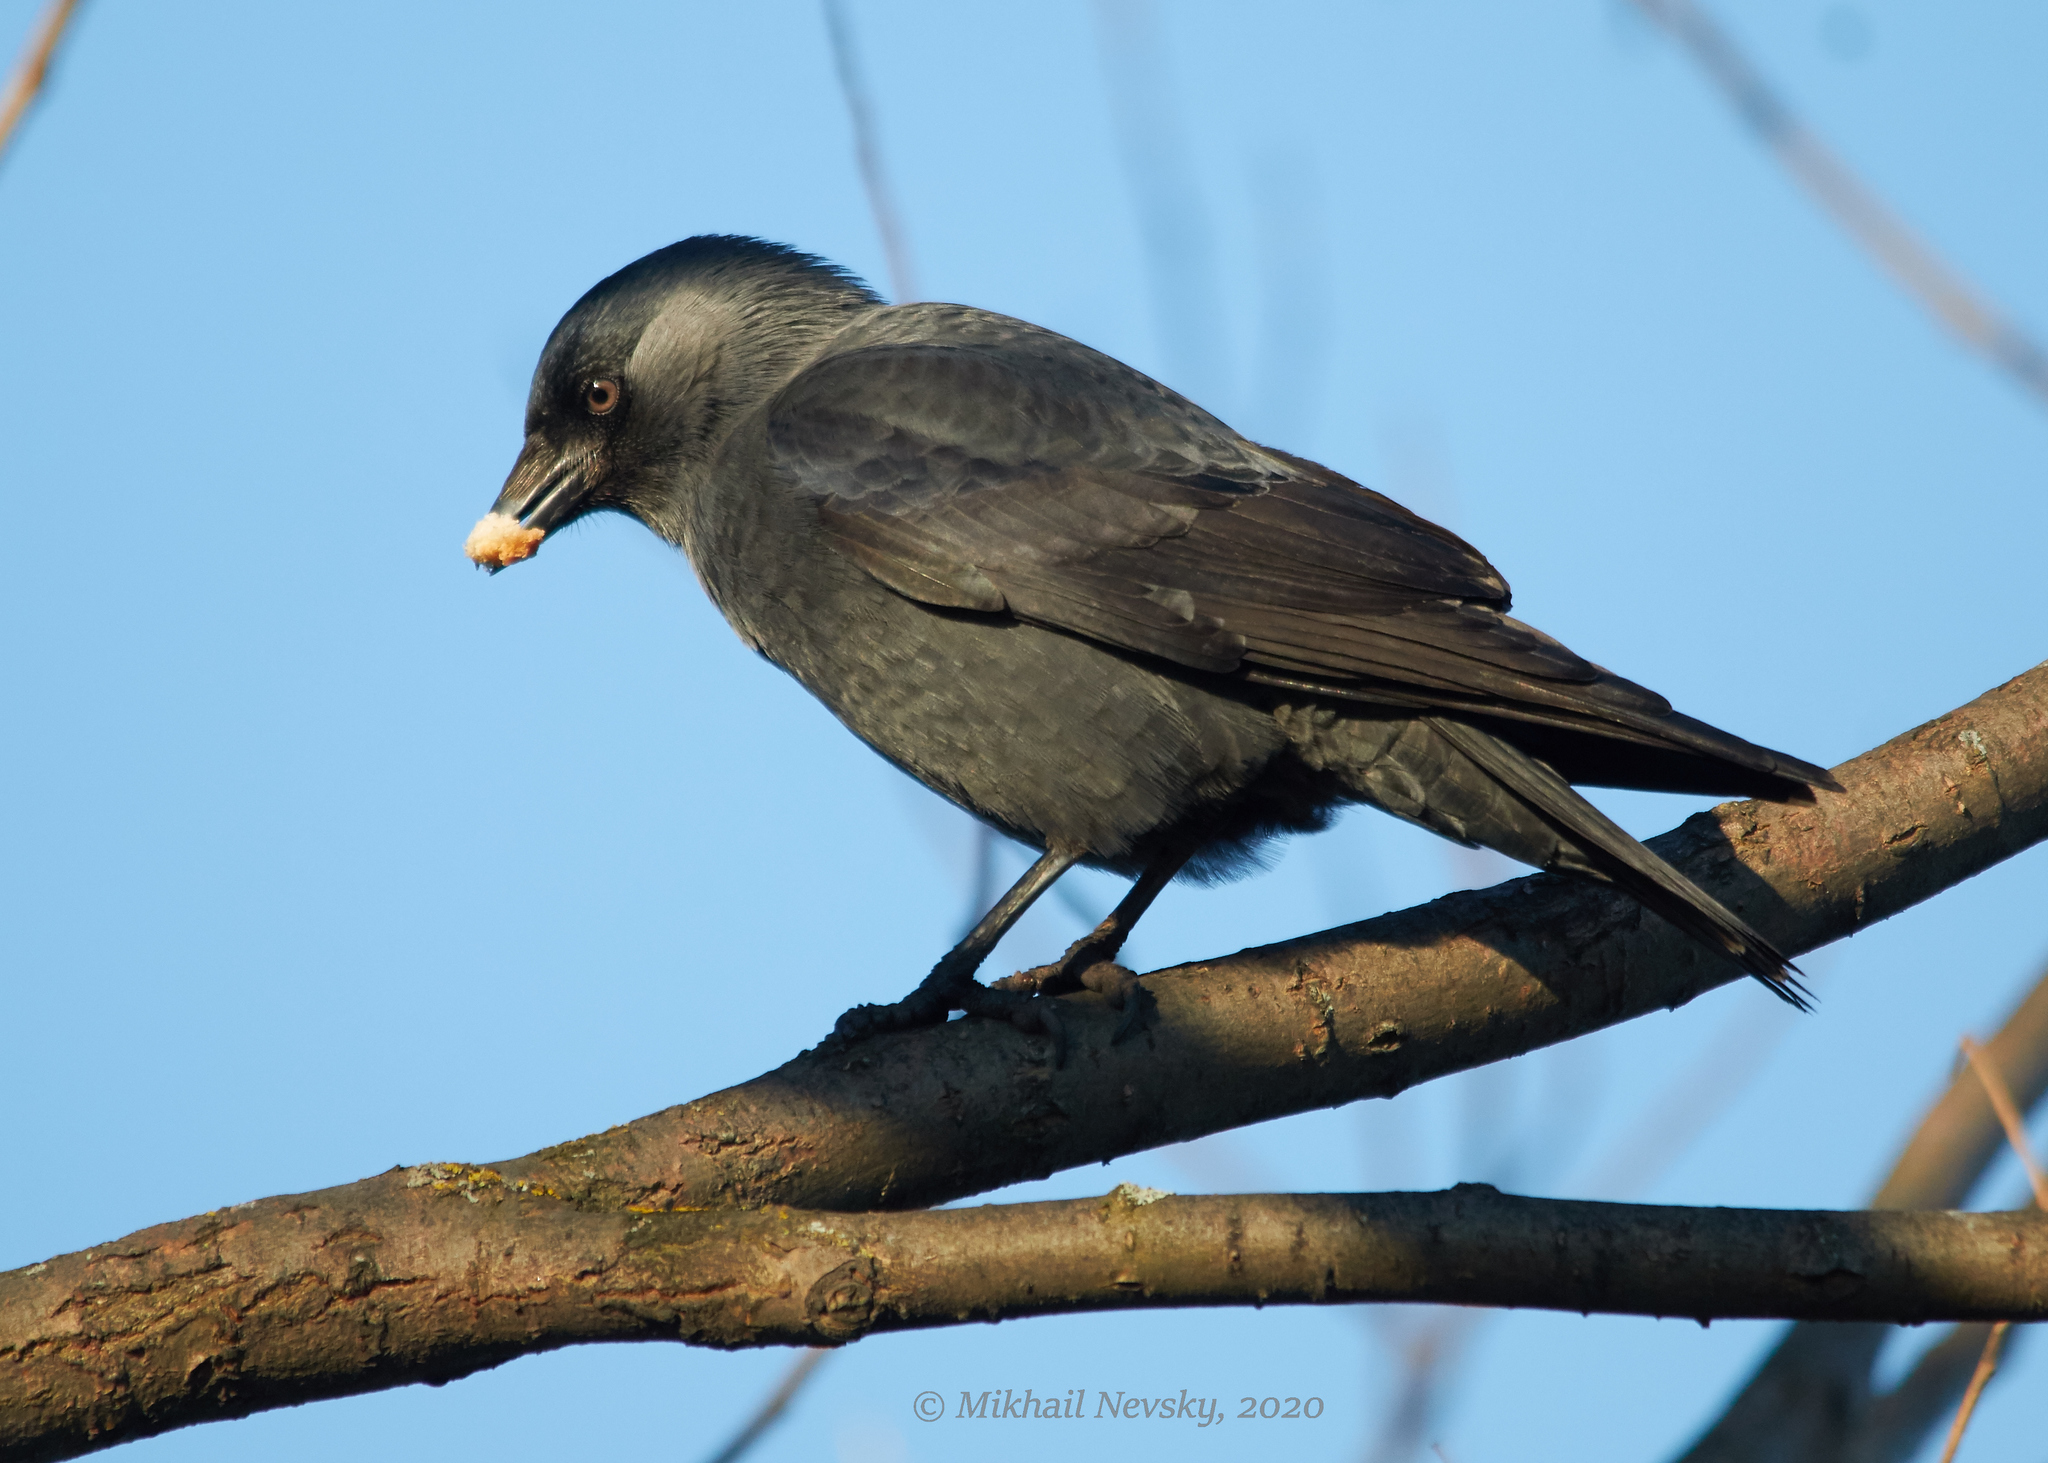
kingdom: Animalia
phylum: Chordata
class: Aves
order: Passeriformes
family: Corvidae
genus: Coloeus
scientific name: Coloeus monedula
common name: Western jackdaw
